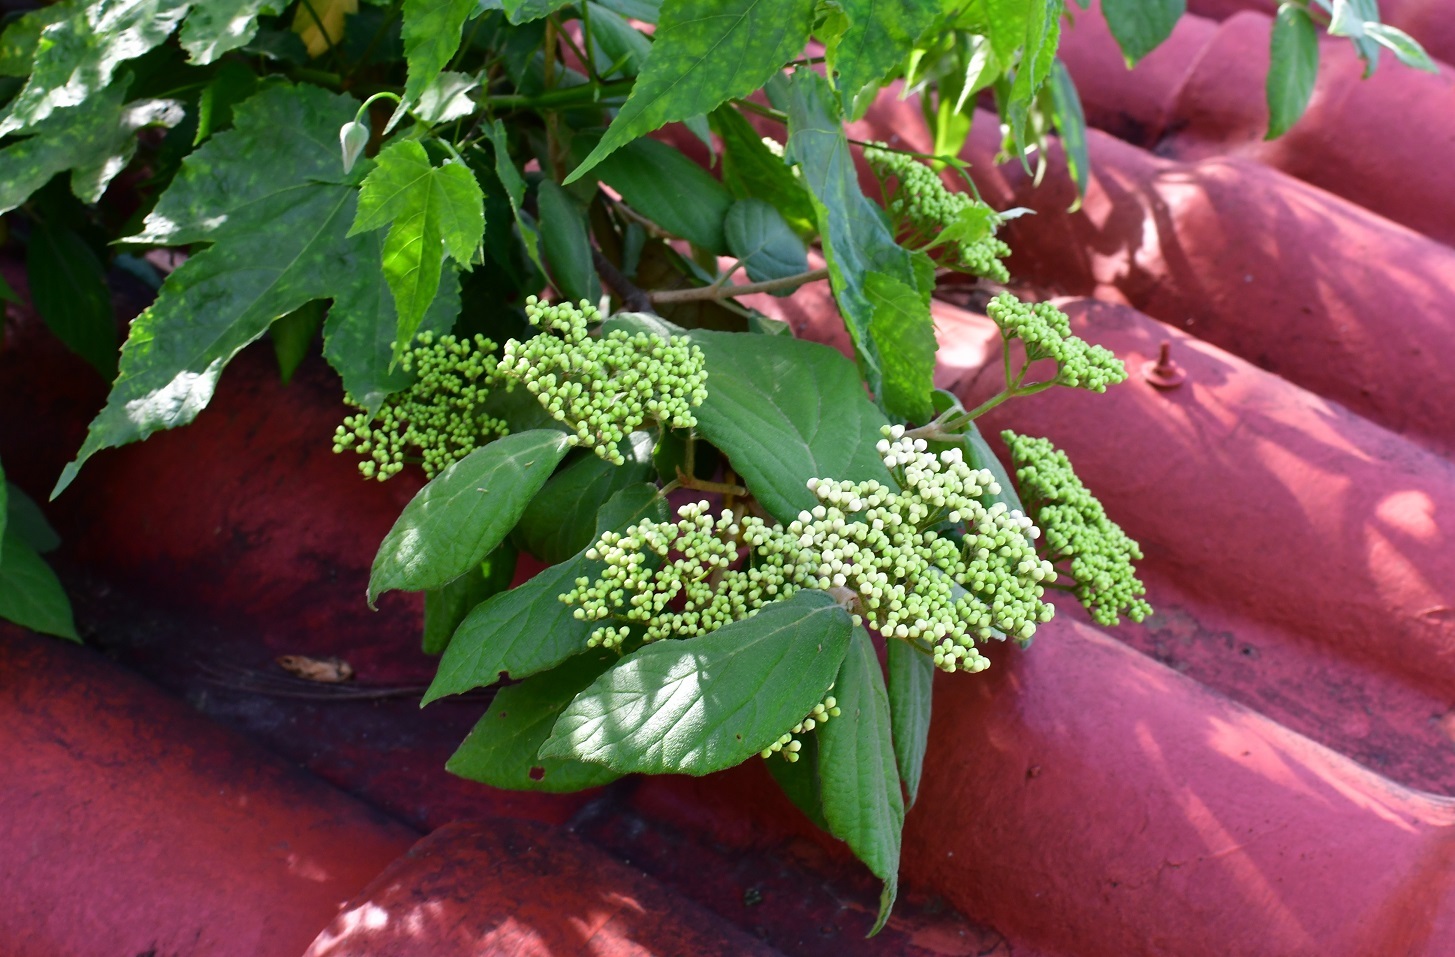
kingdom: Plantae
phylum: Tracheophyta
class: Magnoliopsida
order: Dipsacales
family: Viburnaceae
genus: Viburnum
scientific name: Viburnum jucundum
